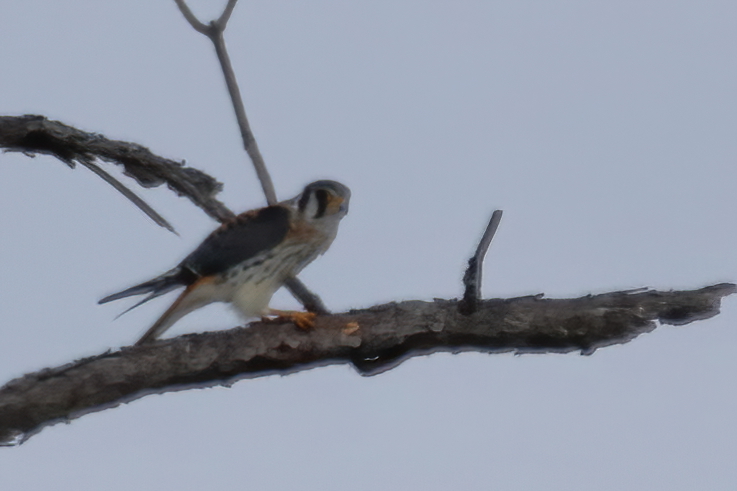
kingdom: Animalia
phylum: Chordata
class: Aves
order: Falconiformes
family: Falconidae
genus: Falco
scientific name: Falco sparverius
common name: American kestrel
